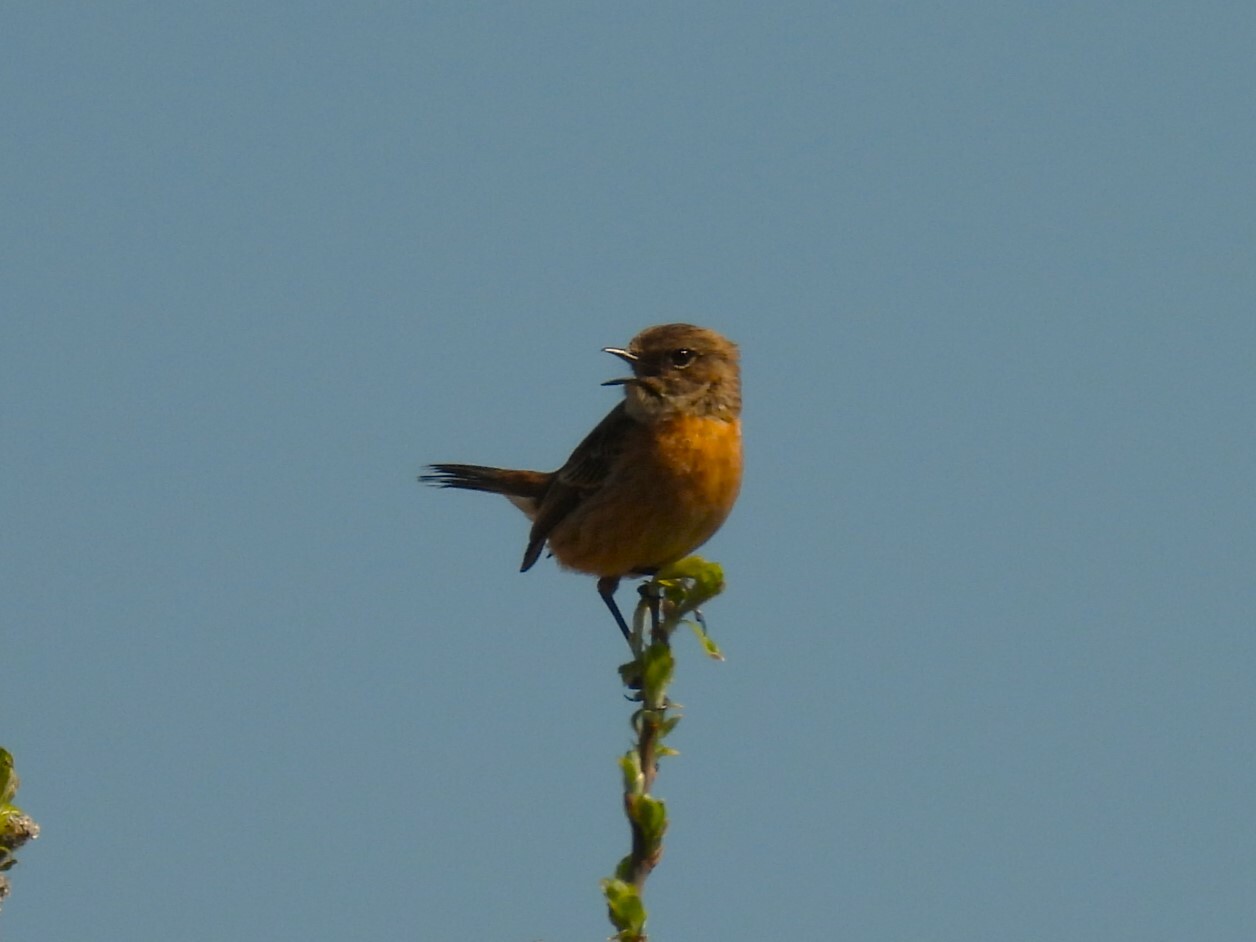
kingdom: Animalia
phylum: Chordata
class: Aves
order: Passeriformes
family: Muscicapidae
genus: Saxicola
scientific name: Saxicola rubicola
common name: European stonechat
